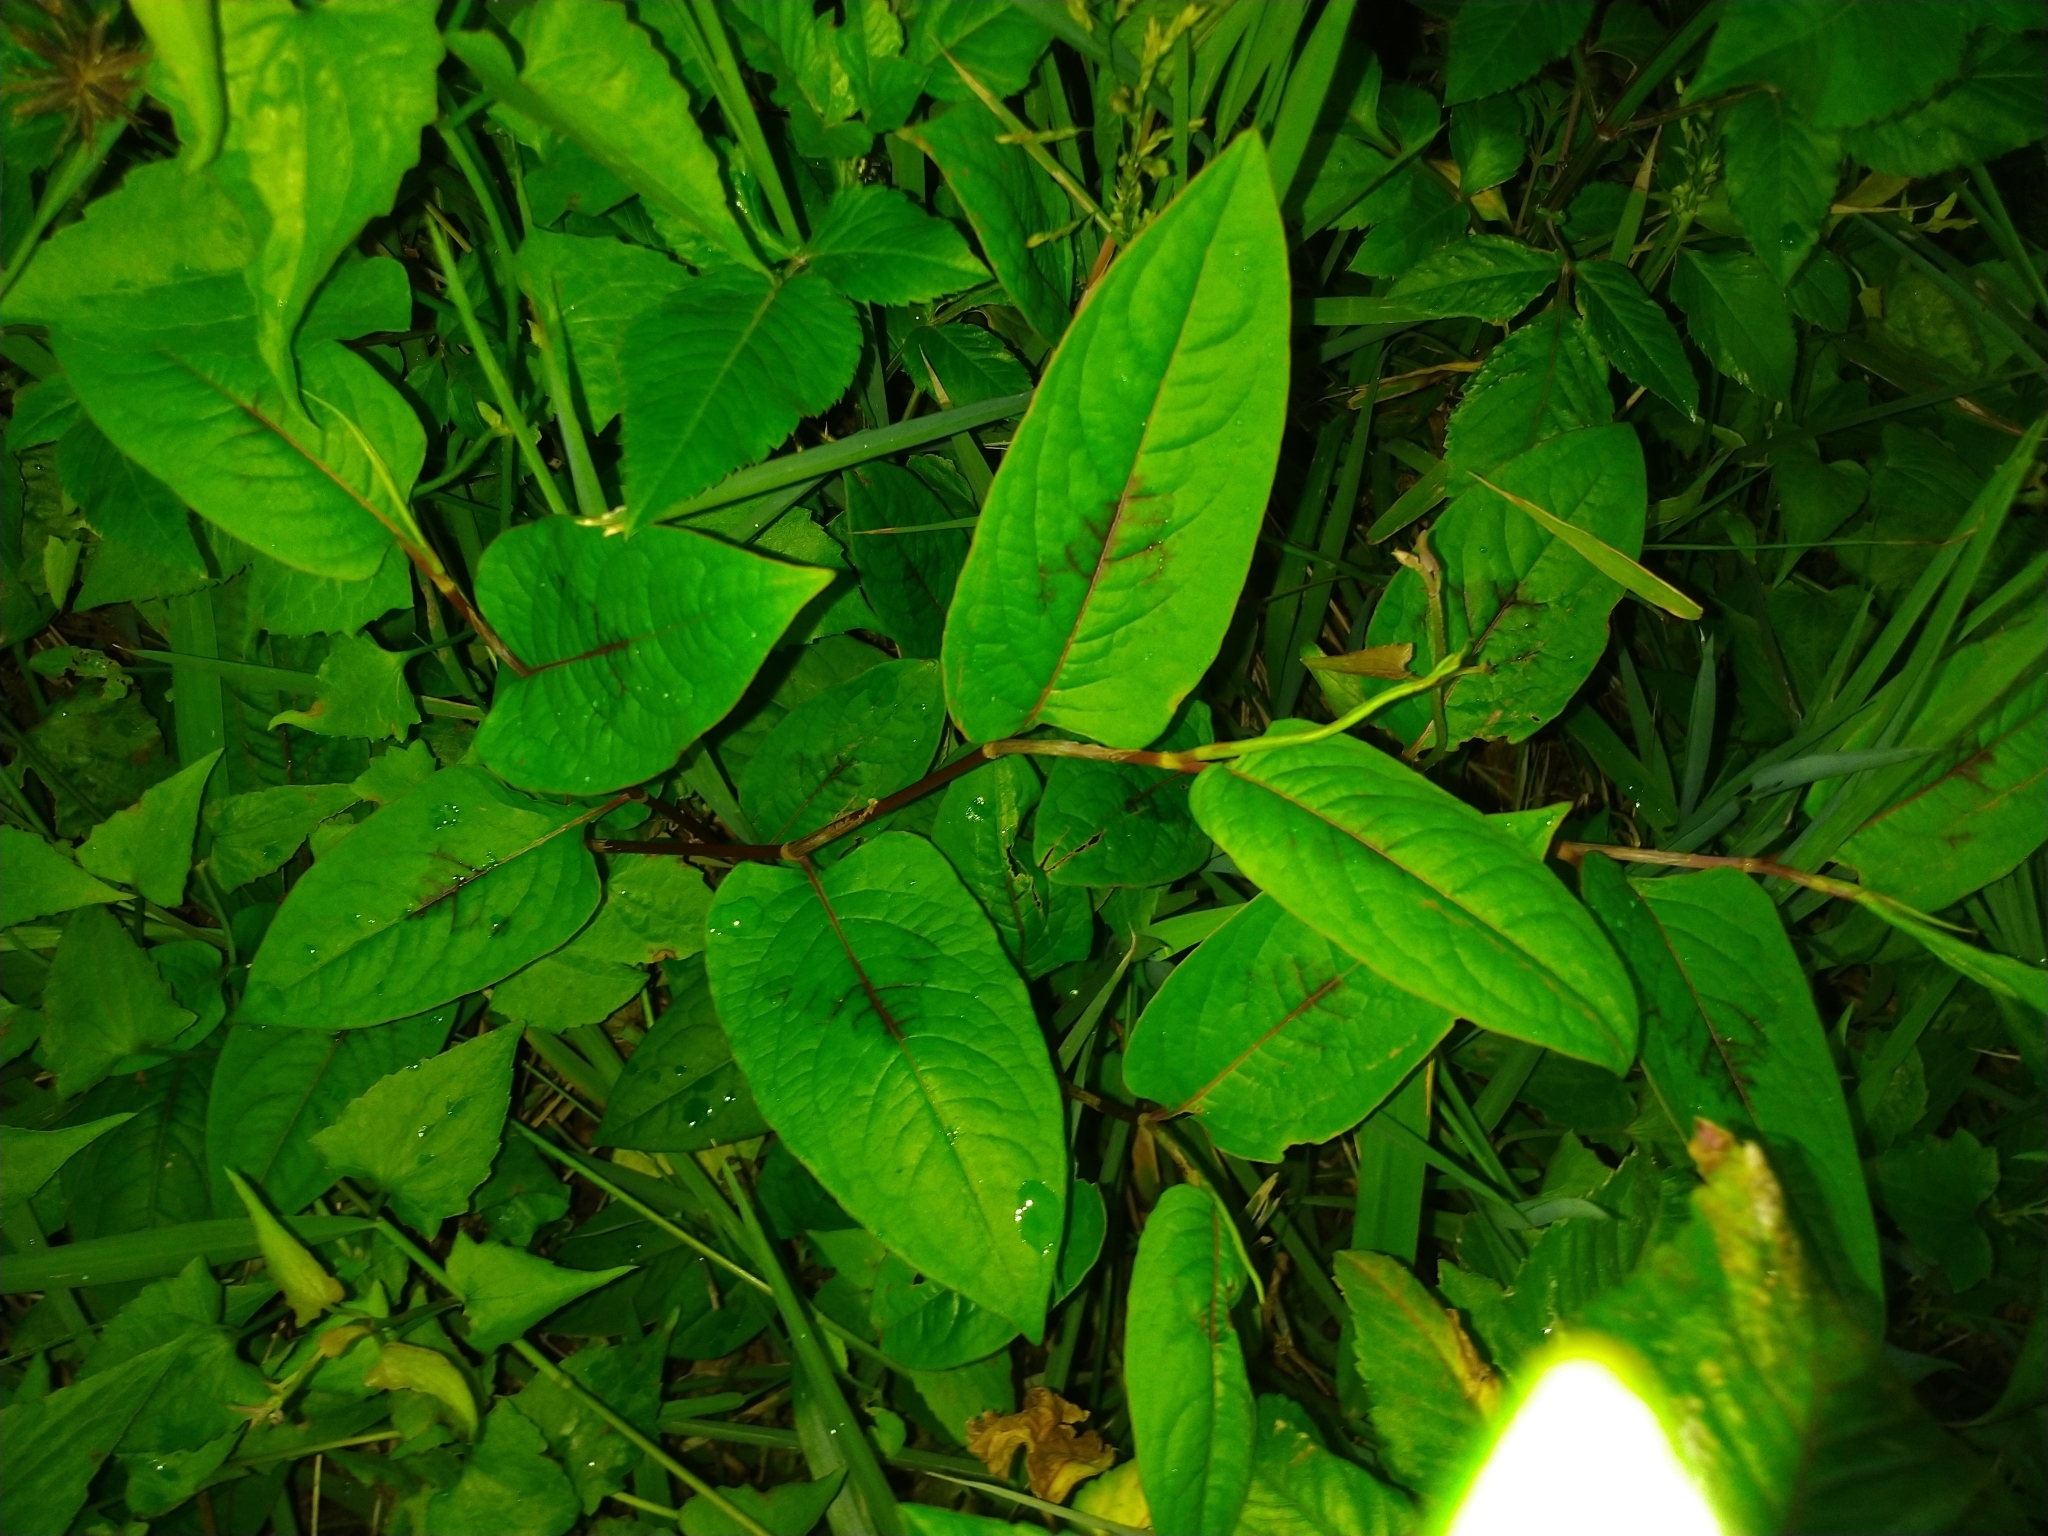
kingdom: Plantae
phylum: Tracheophyta
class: Magnoliopsida
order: Caryophyllales
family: Polygonaceae
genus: Persicaria
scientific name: Persicaria chinensis
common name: Chinese knotweed
